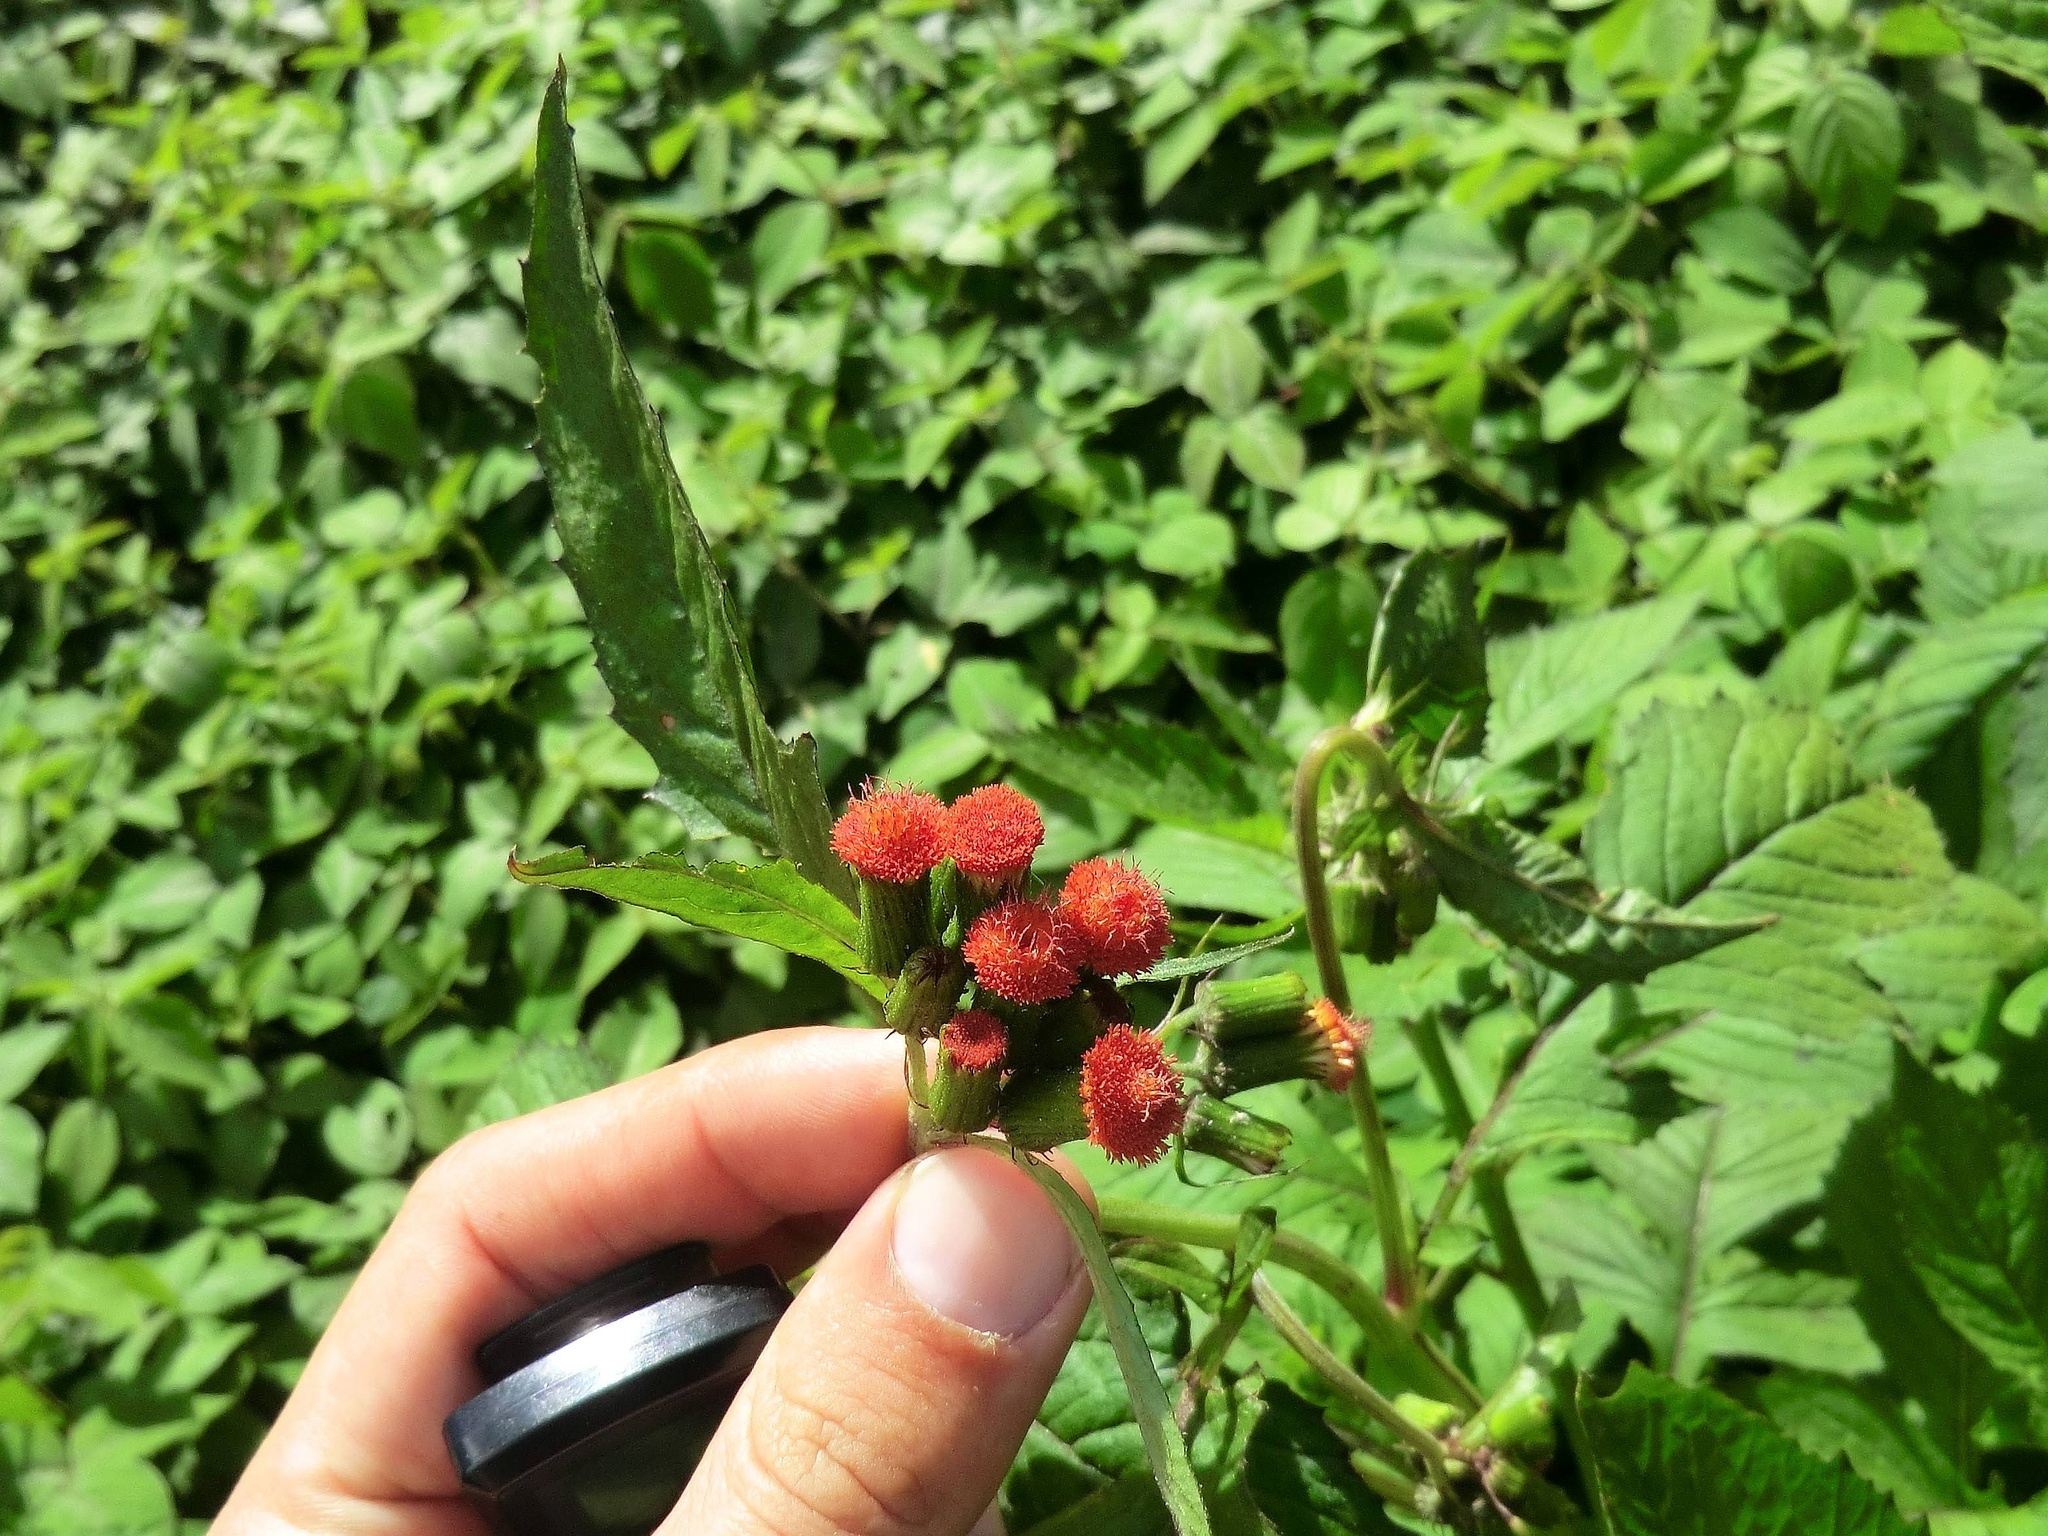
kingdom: Plantae
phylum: Tracheophyta
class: Magnoliopsida
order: Asterales
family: Asteraceae
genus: Crassocephalum
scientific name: Crassocephalum crepidioides
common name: Redflower ragleaf
